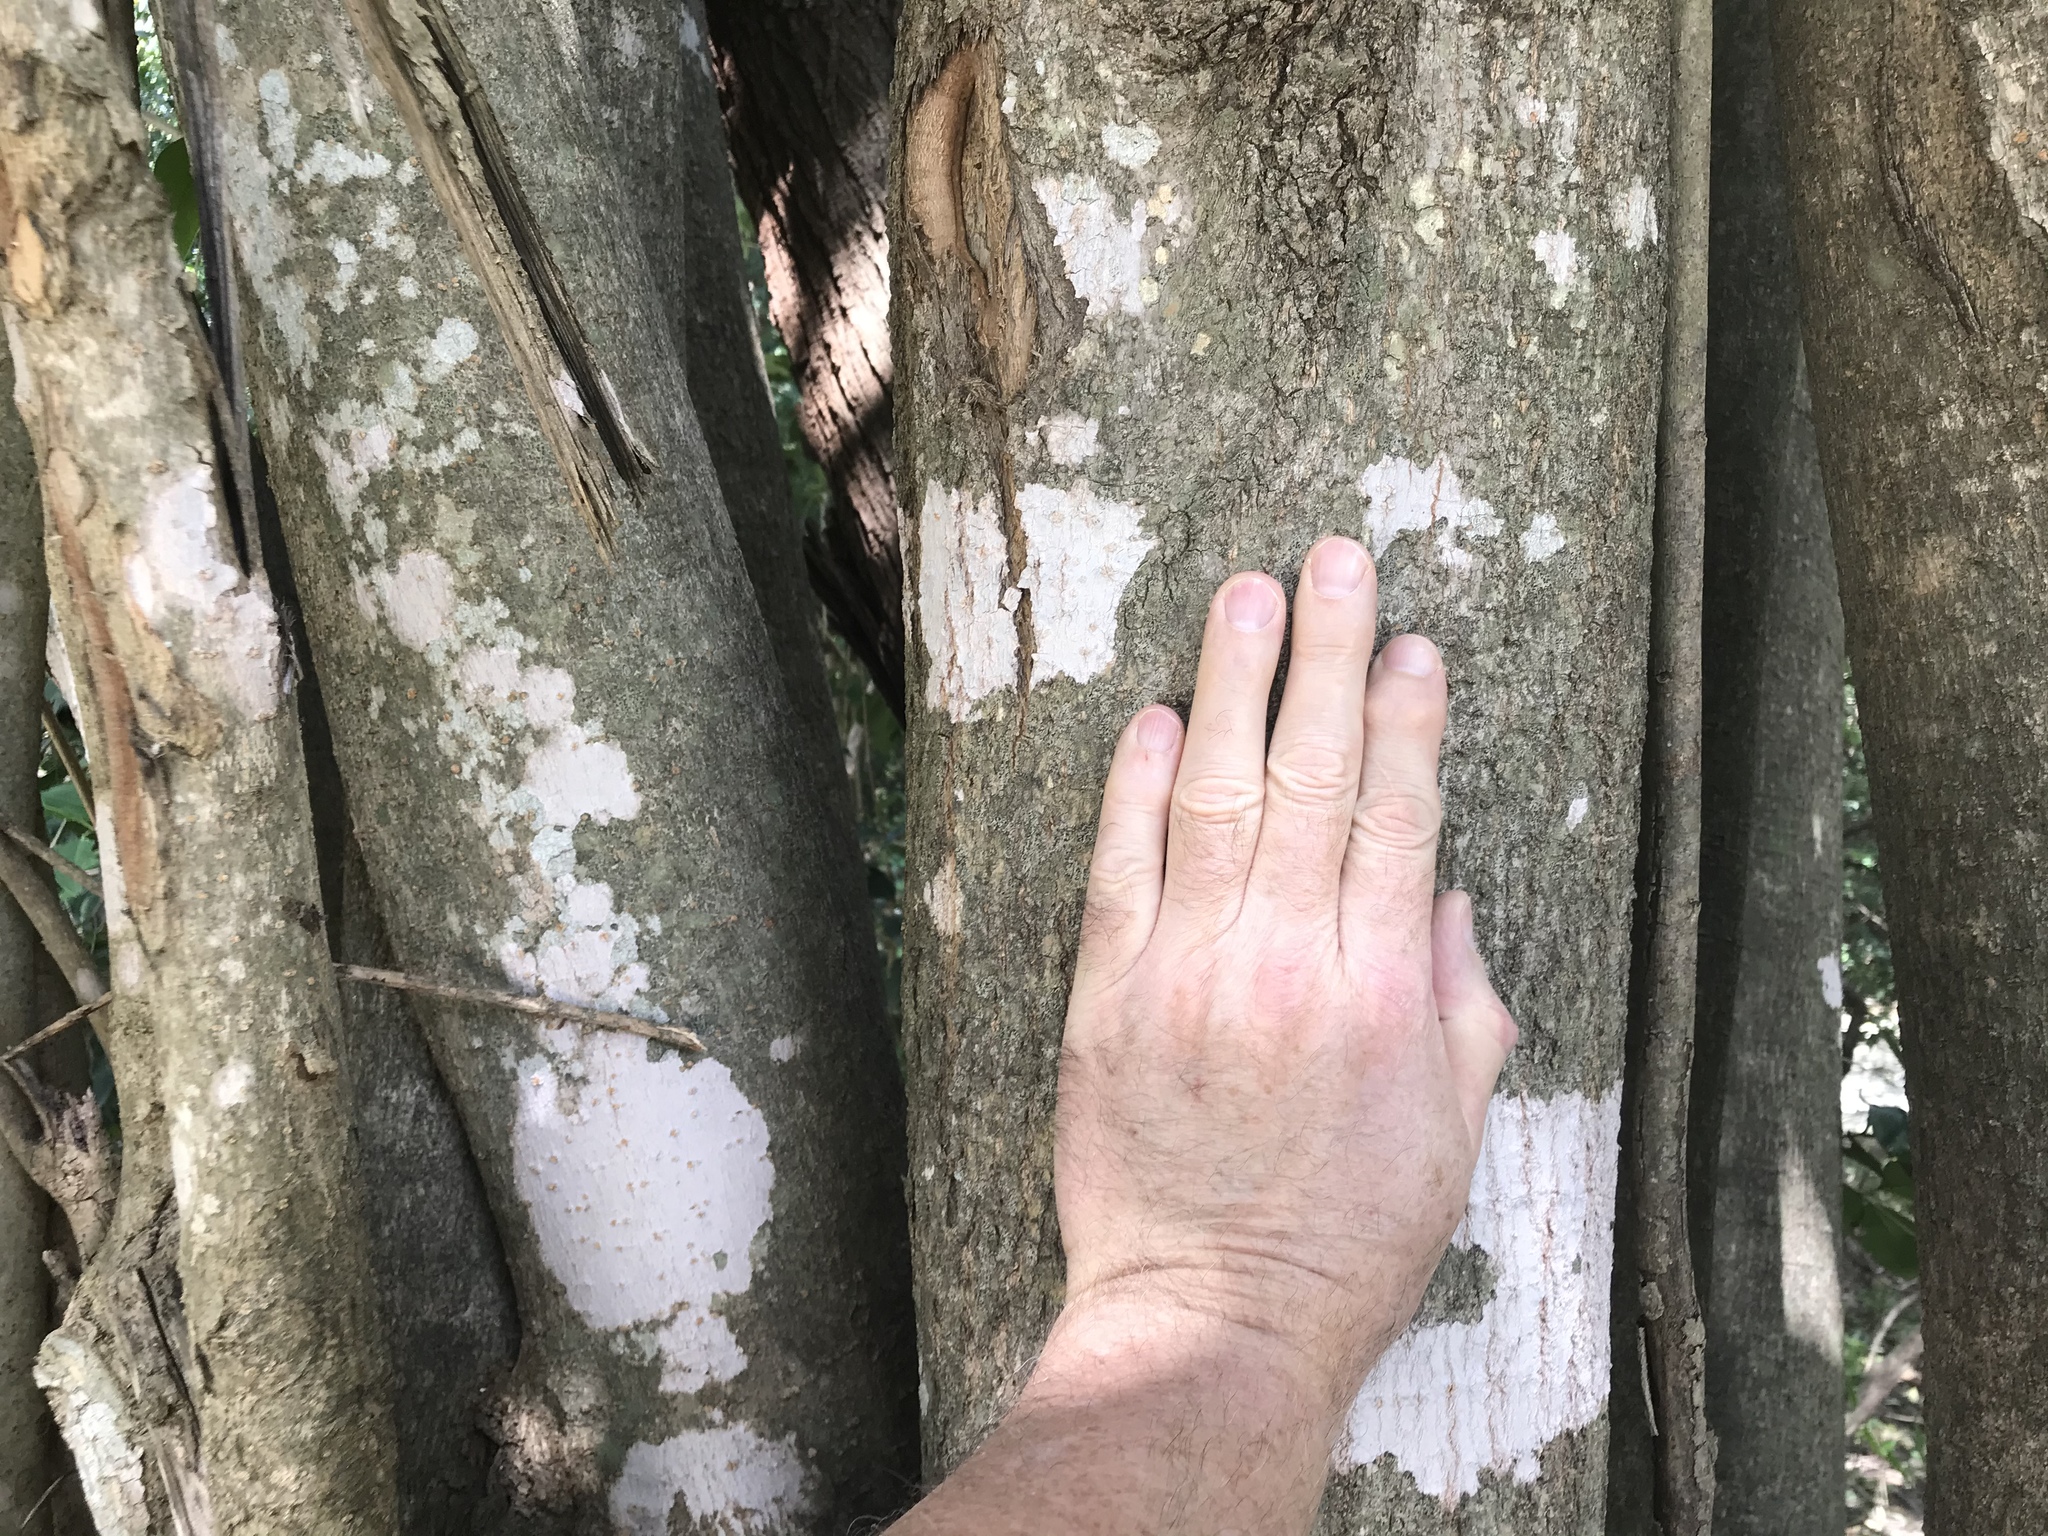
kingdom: Plantae
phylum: Tracheophyta
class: Magnoliopsida
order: Lamiales
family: Oleaceae
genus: Ligustrum
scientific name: Ligustrum lucidum
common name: Glossy privet
